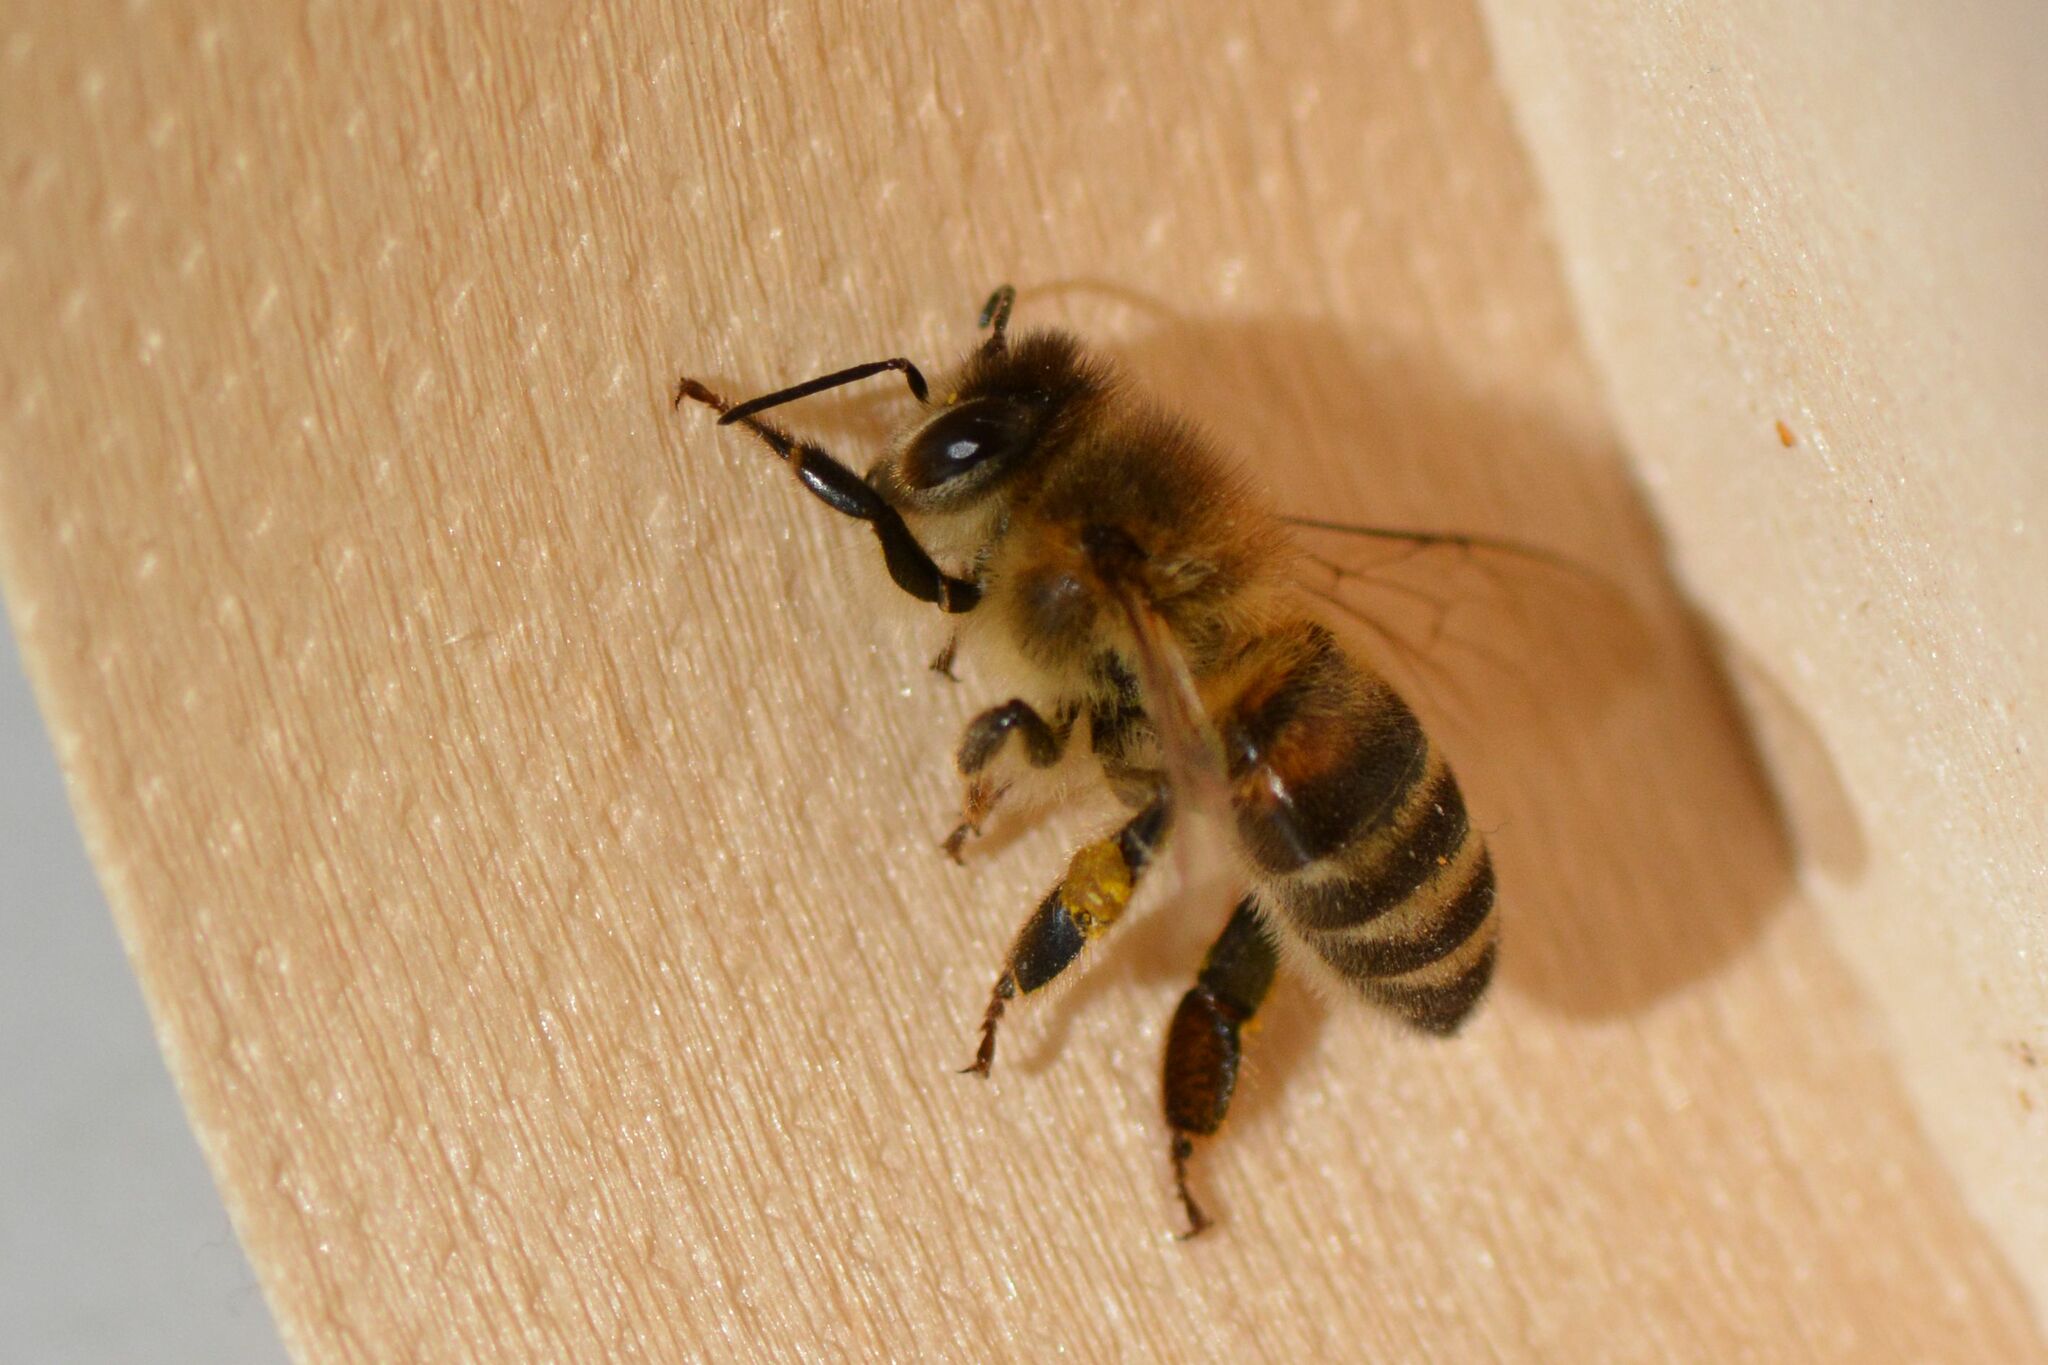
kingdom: Animalia
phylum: Arthropoda
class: Insecta
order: Hymenoptera
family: Apidae
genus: Apis
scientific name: Apis mellifera
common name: Honey bee
